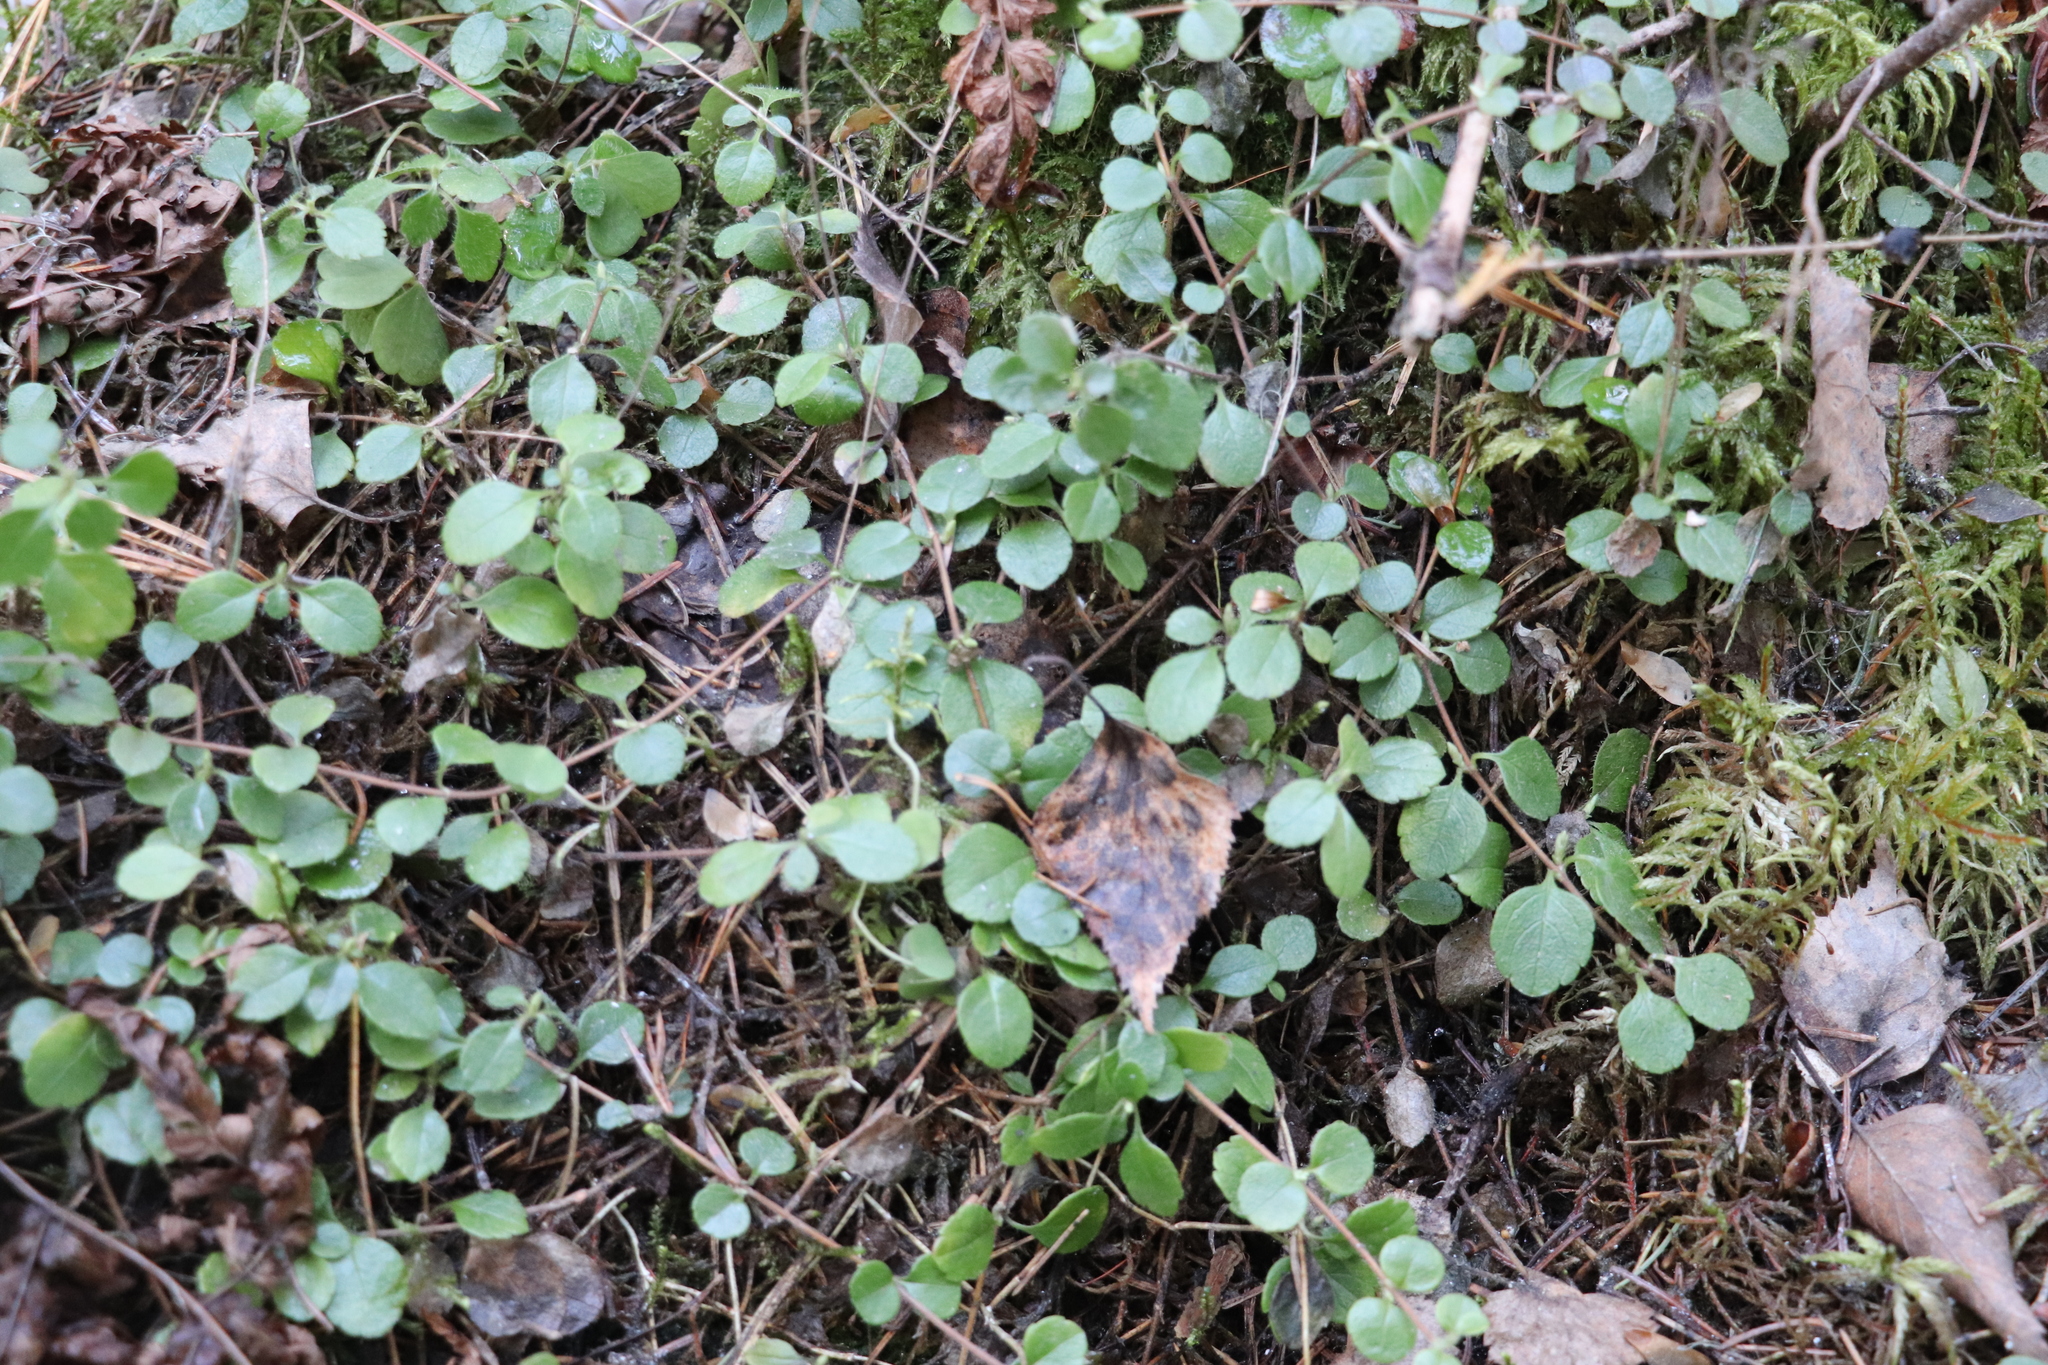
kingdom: Plantae
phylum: Tracheophyta
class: Magnoliopsida
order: Dipsacales
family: Caprifoliaceae
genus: Linnaea
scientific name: Linnaea borealis
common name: Twinflower
